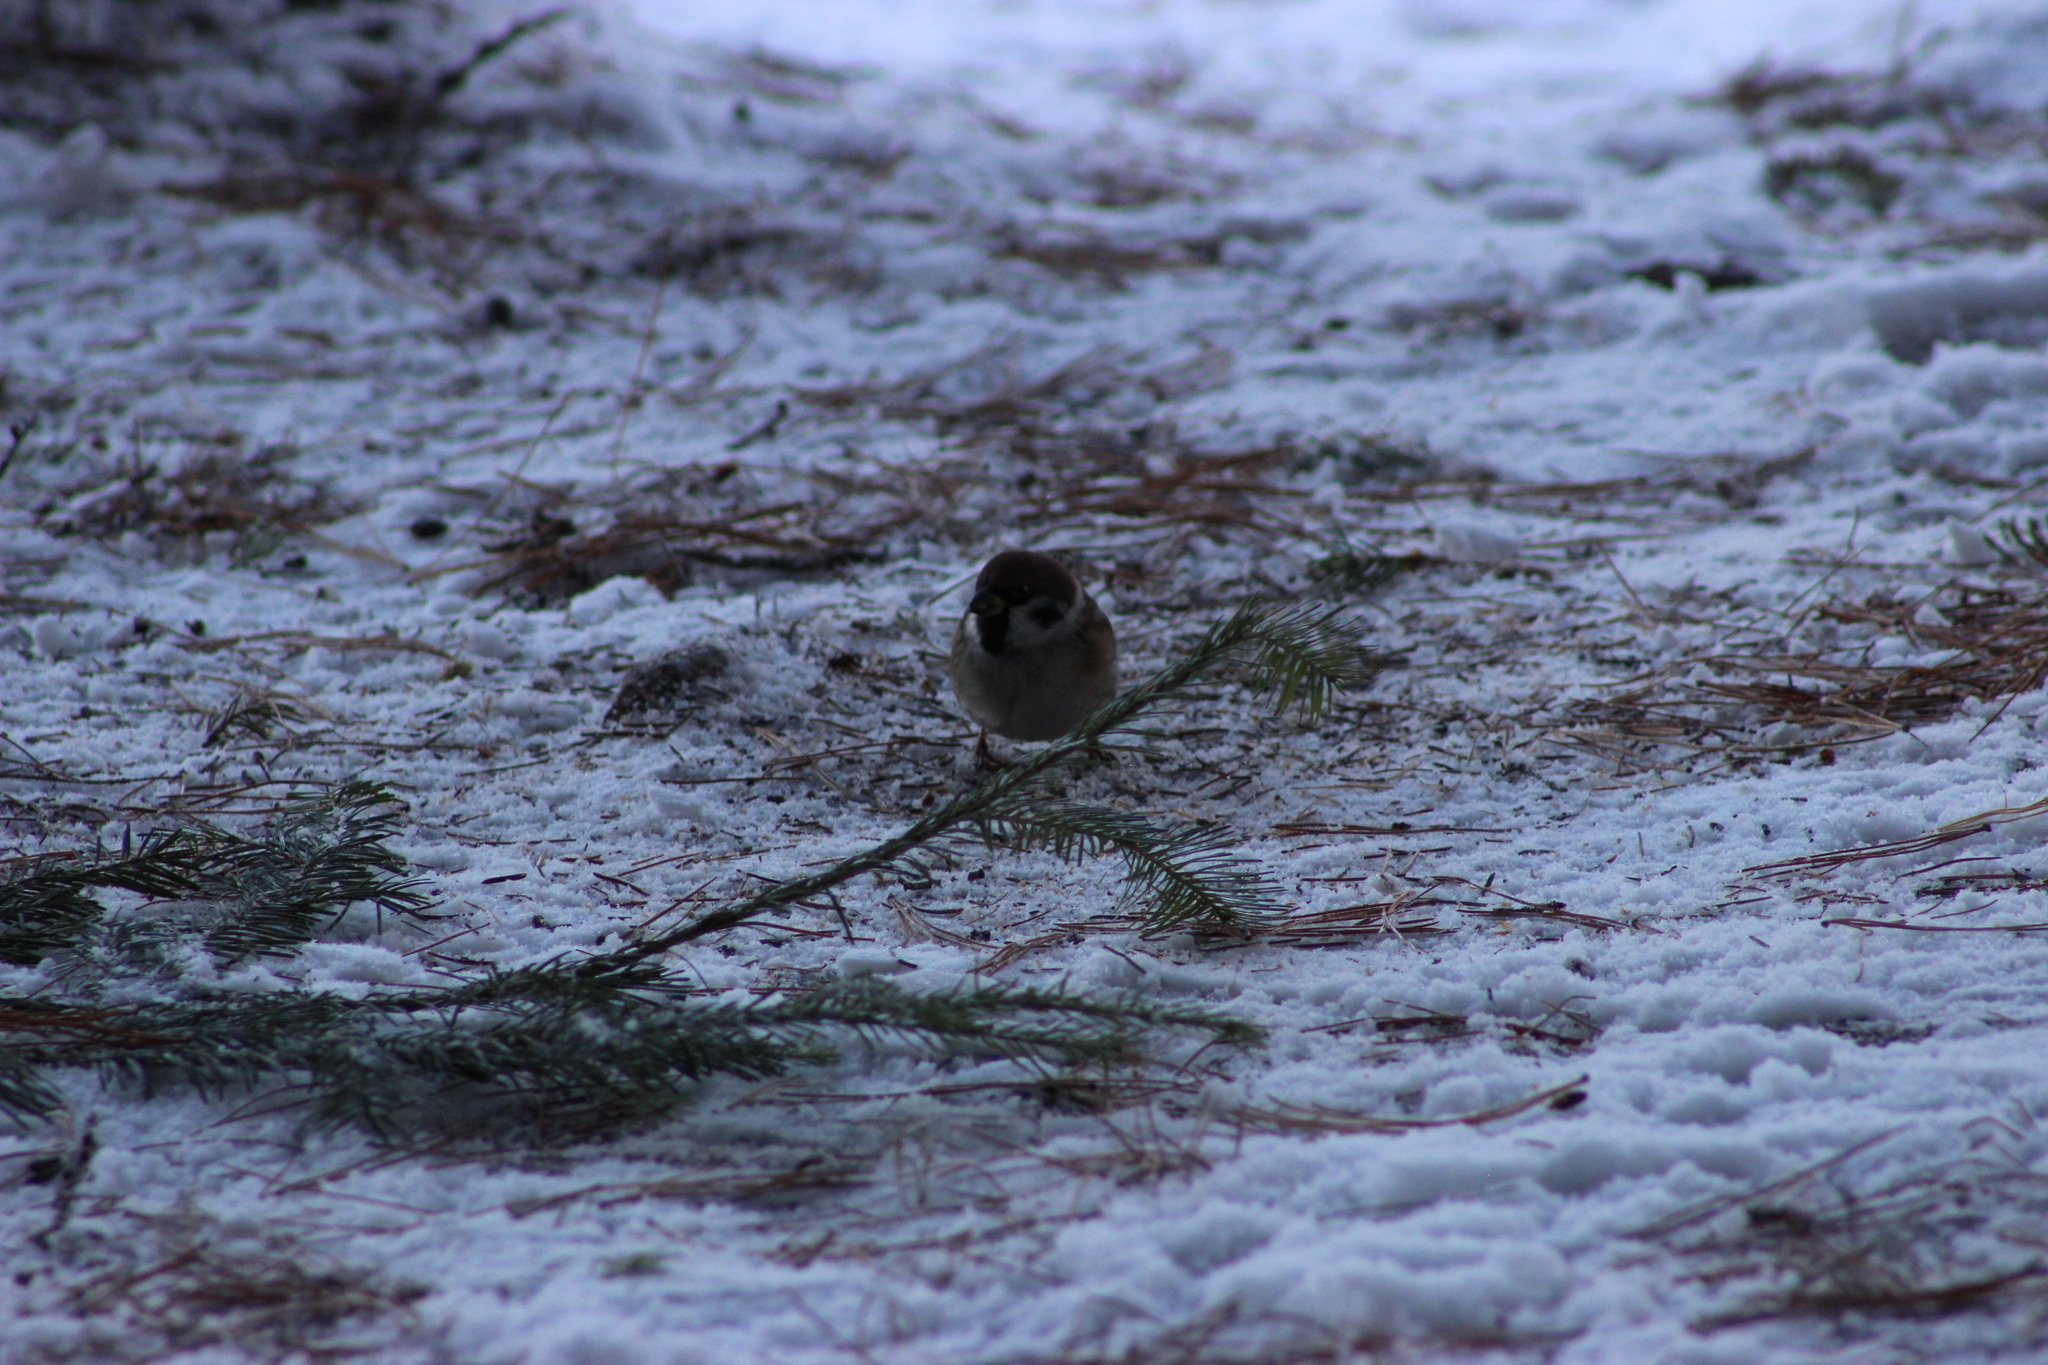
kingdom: Animalia
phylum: Chordata
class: Aves
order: Passeriformes
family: Passeridae
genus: Passer
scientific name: Passer montanus
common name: Eurasian tree sparrow
